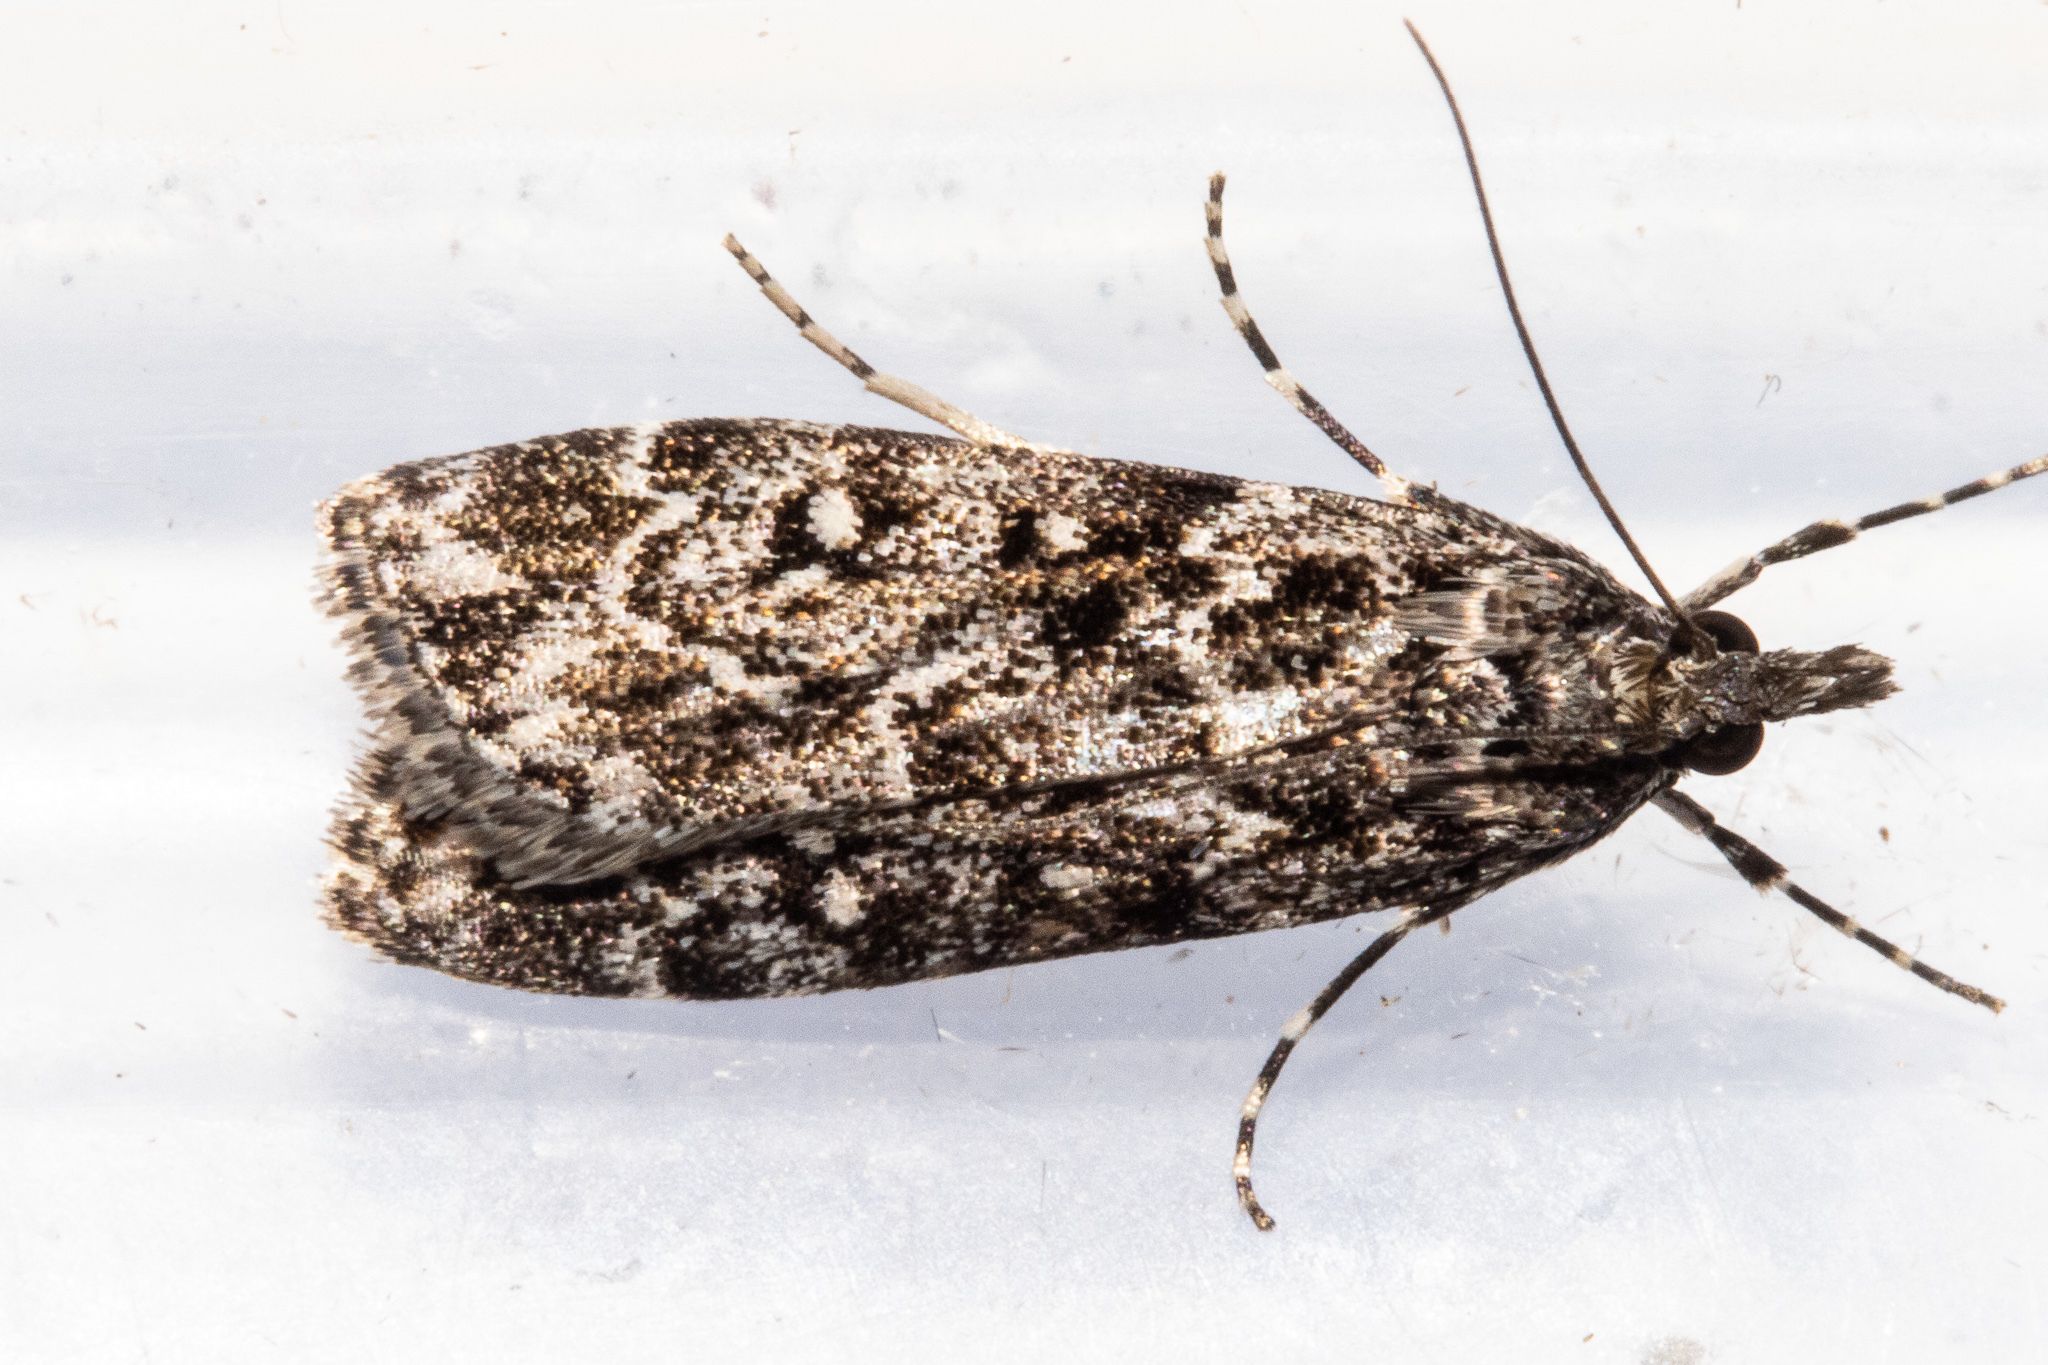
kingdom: Animalia
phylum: Arthropoda
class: Insecta
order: Lepidoptera
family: Crambidae
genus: Eudonia
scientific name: Eudonia philerga
